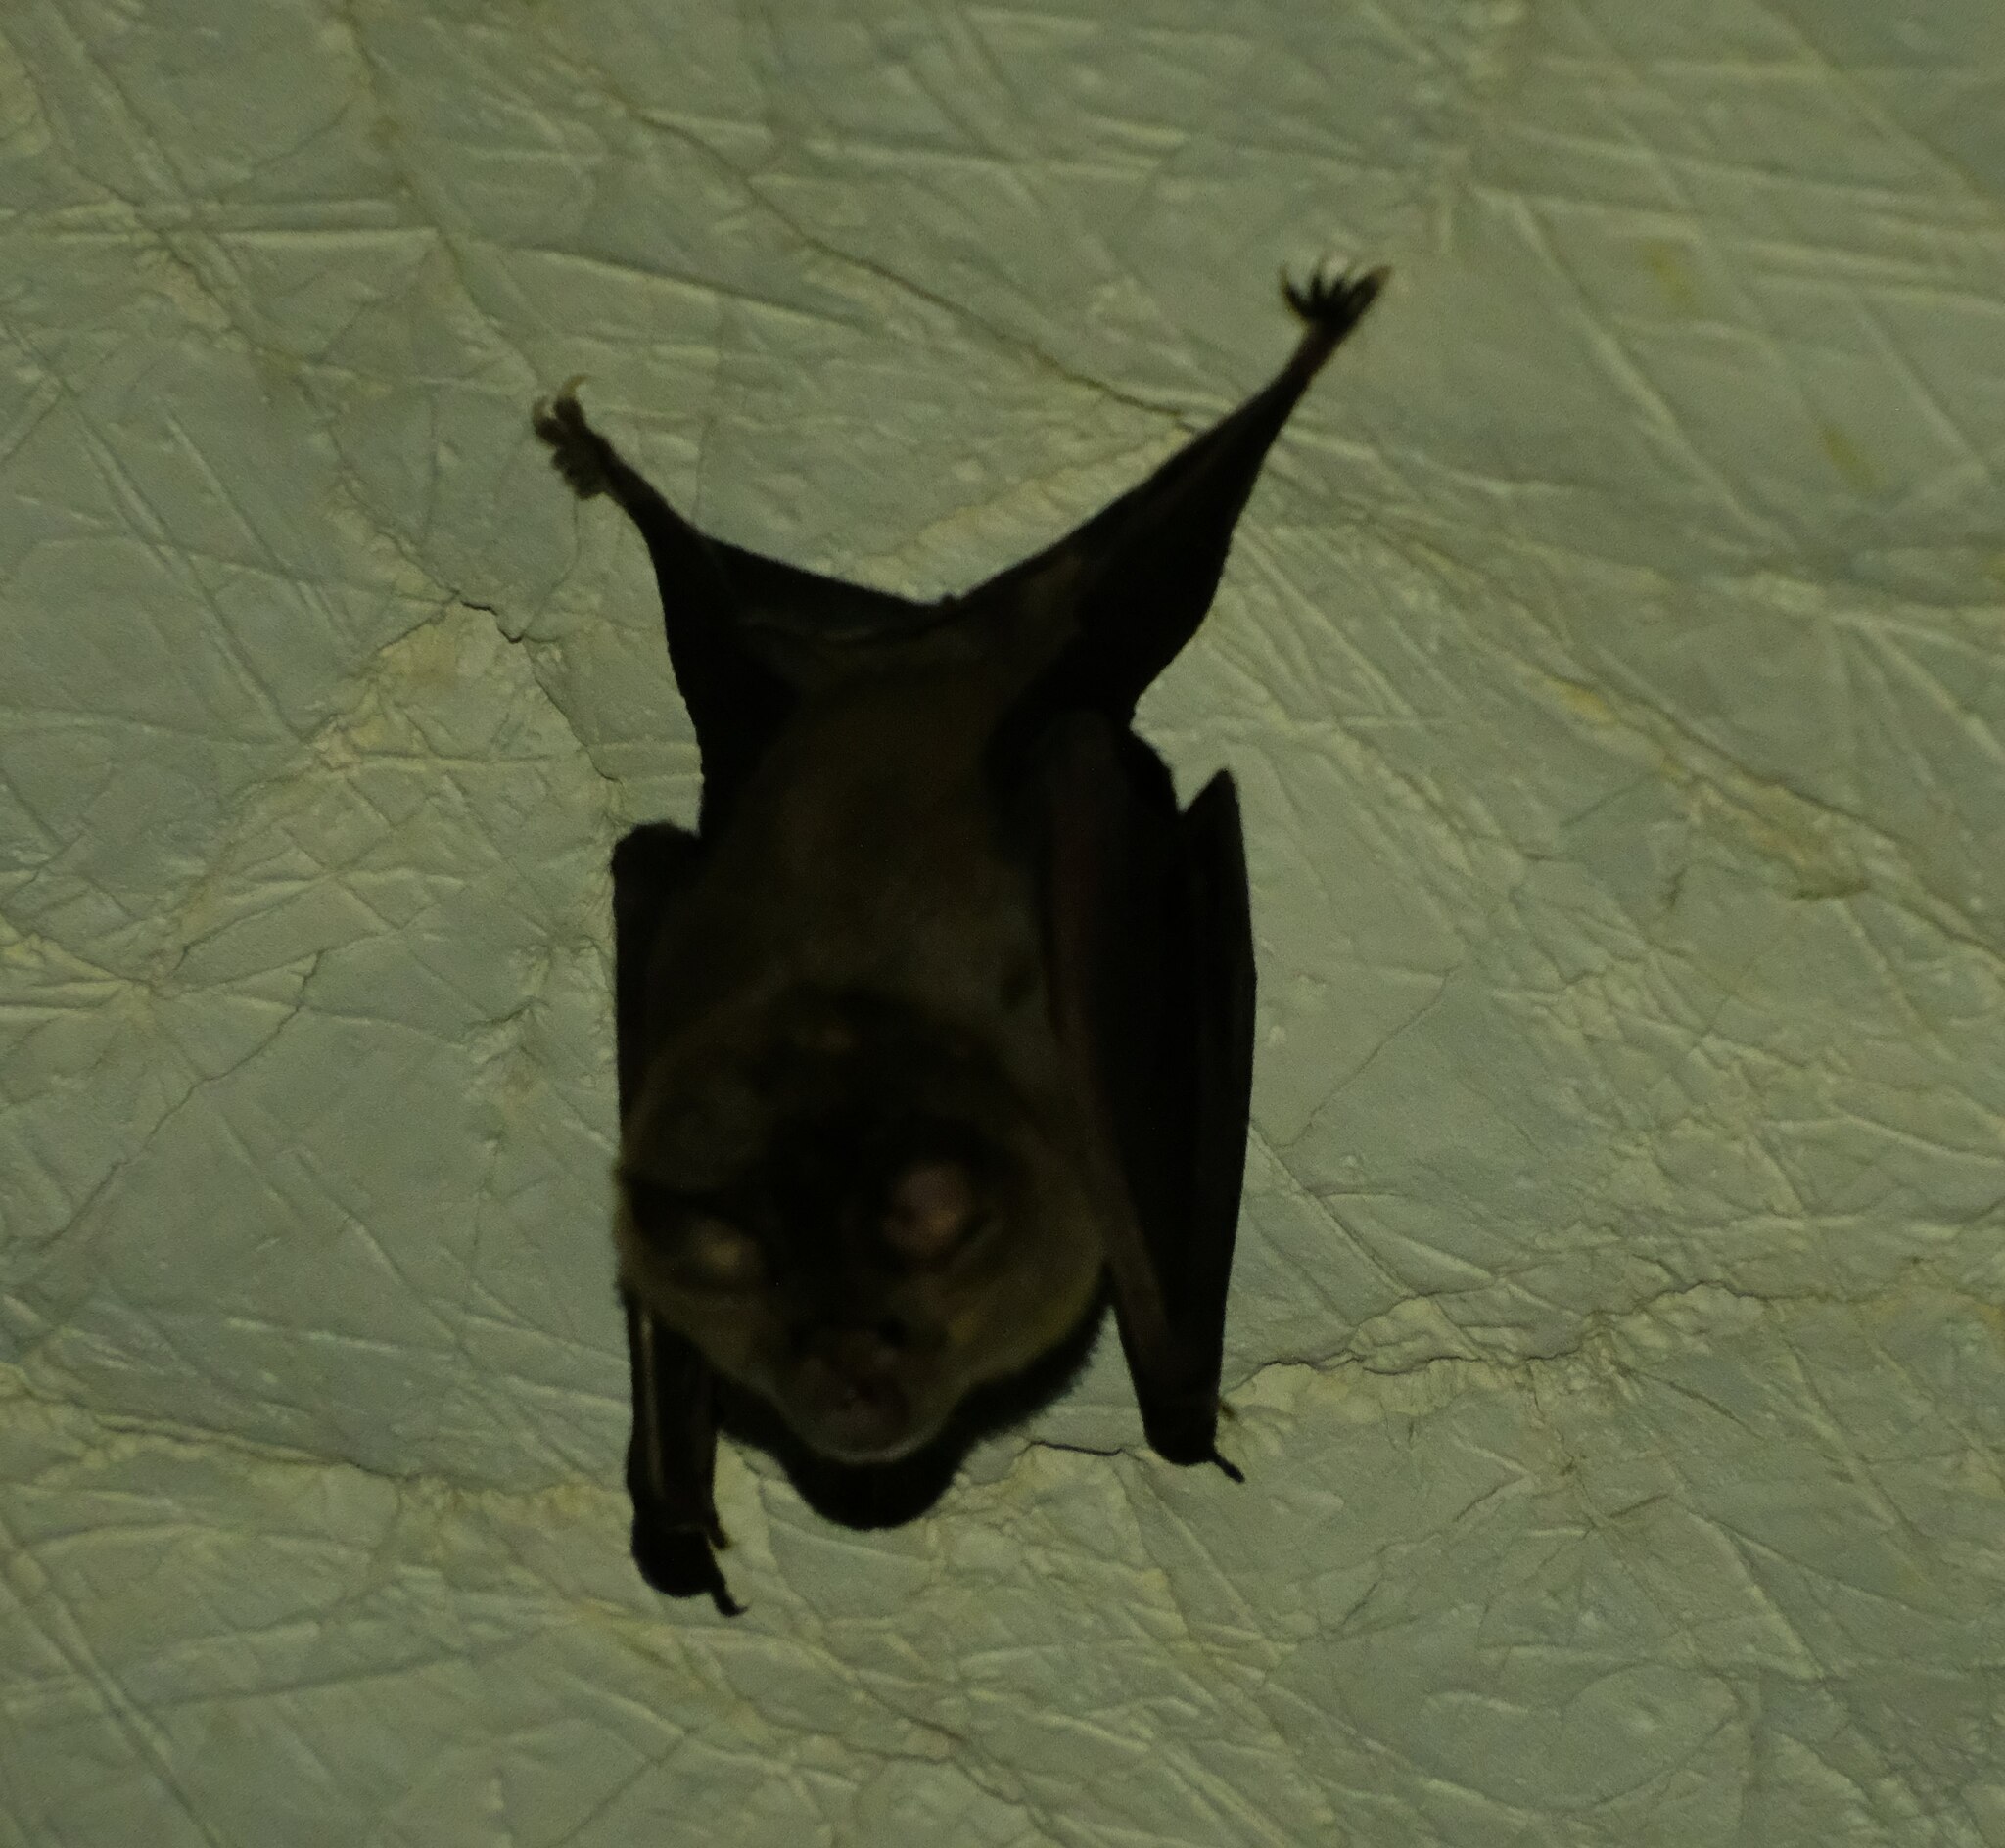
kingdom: Animalia
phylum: Chordata
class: Mammalia
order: Chiroptera
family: Rhinolophidae
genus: Rhinolophus
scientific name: Rhinolophus ferrumequinum
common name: Greater horseshoe bat
